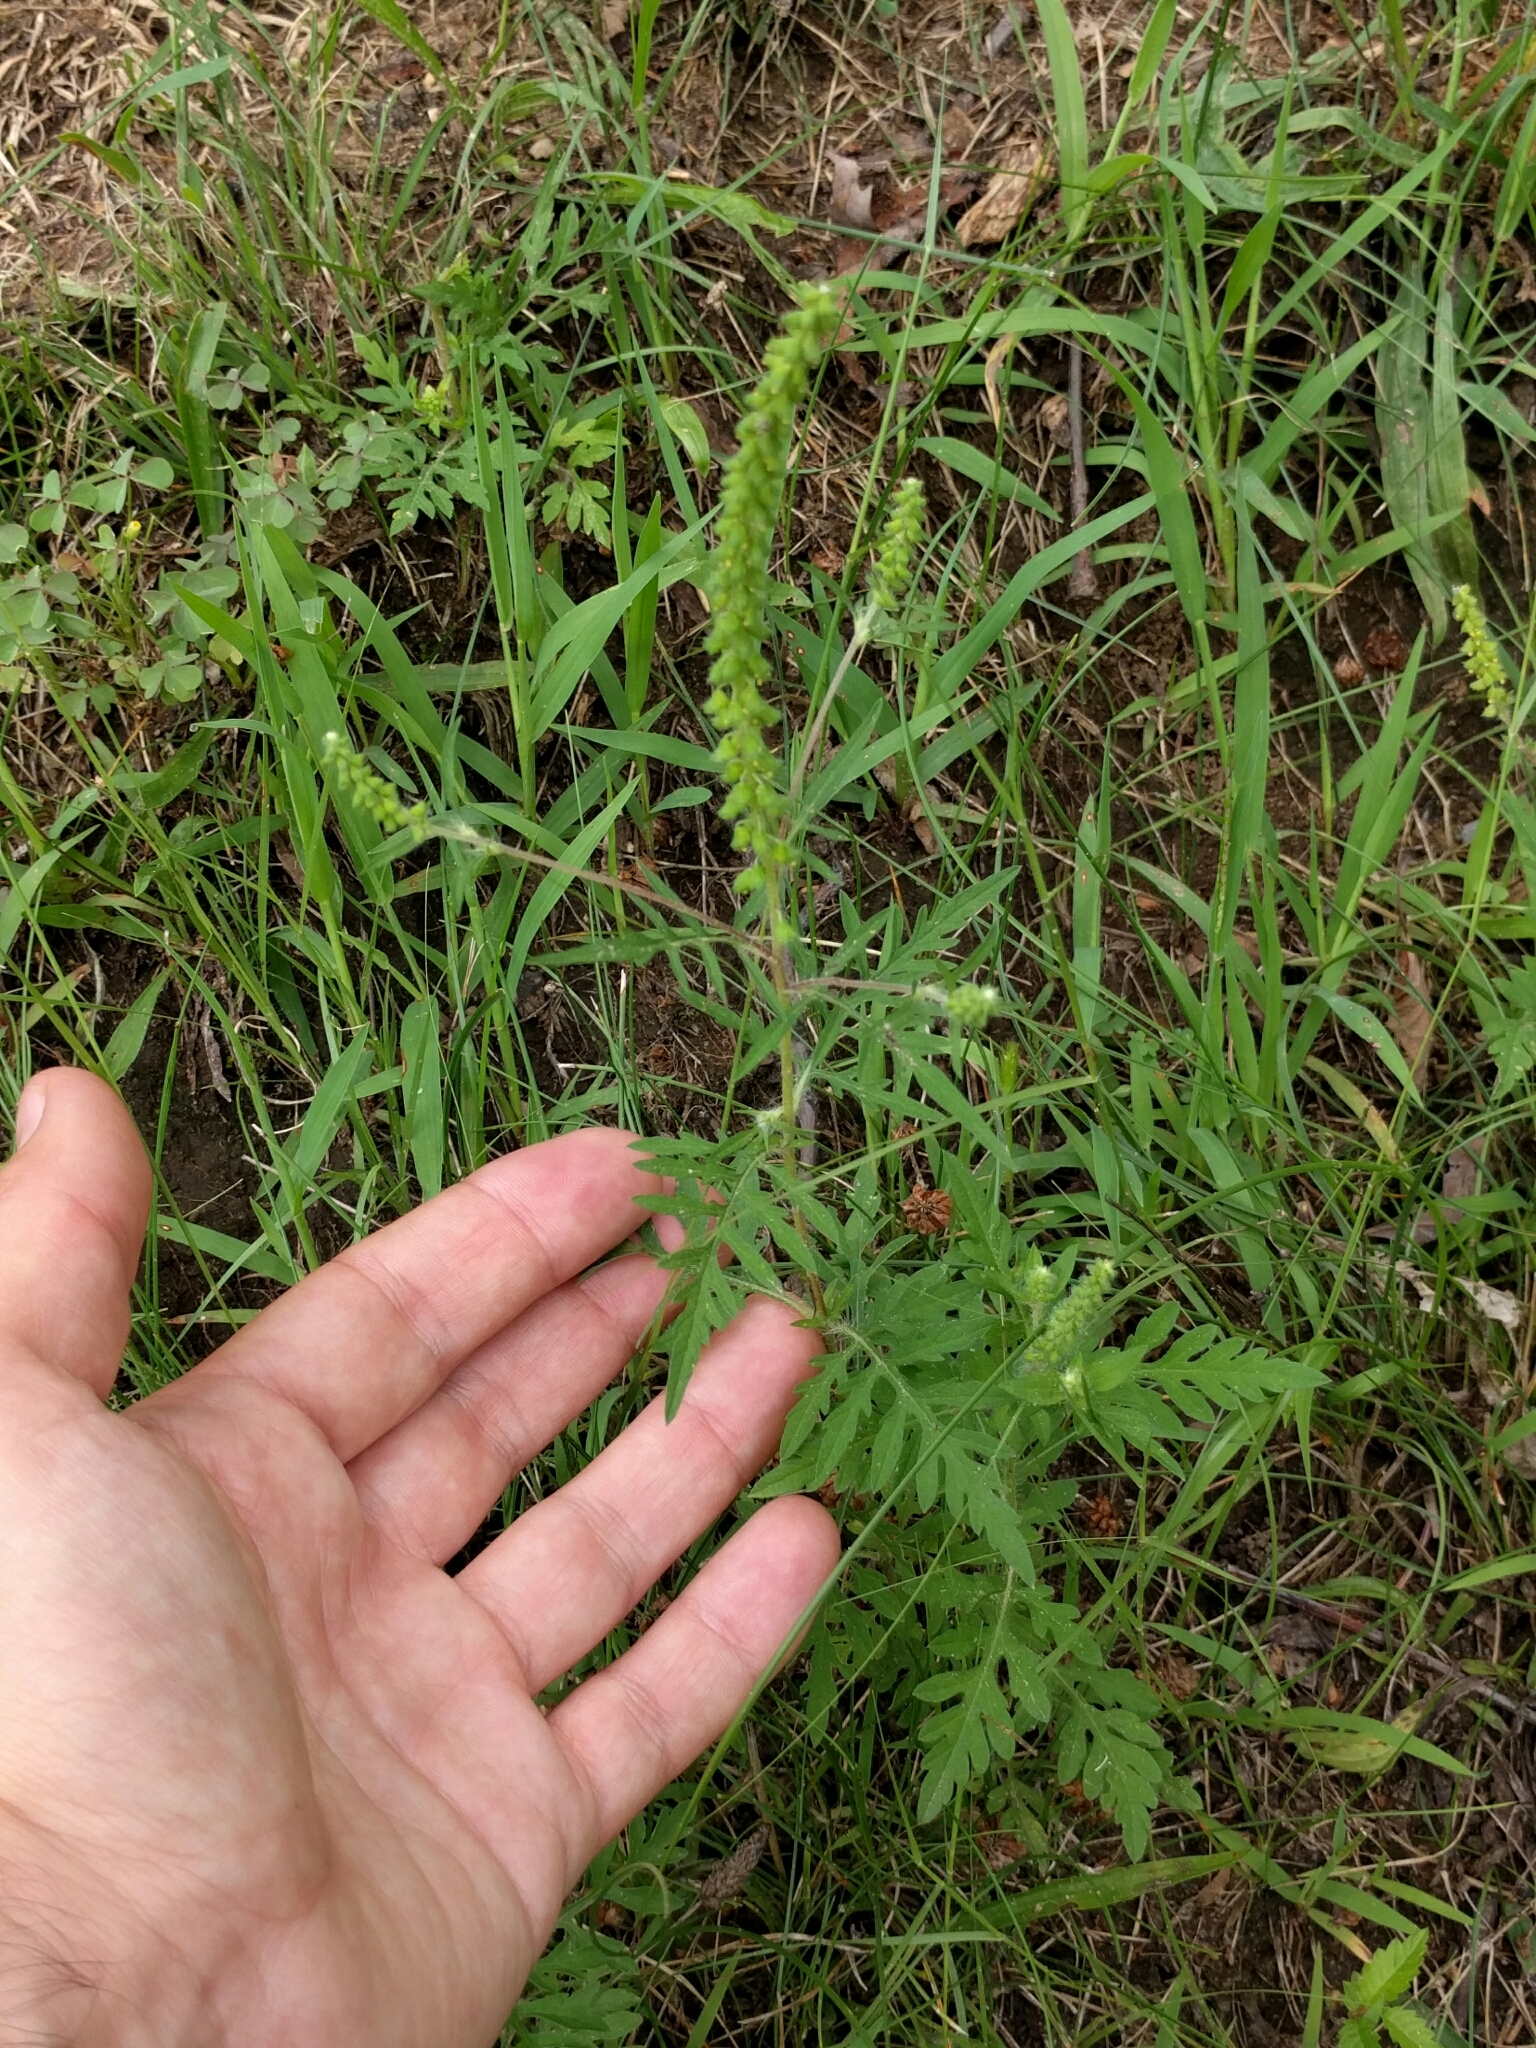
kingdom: Plantae
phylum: Tracheophyta
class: Magnoliopsida
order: Asterales
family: Asteraceae
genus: Ambrosia
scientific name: Ambrosia artemisiifolia
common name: Annual ragweed
